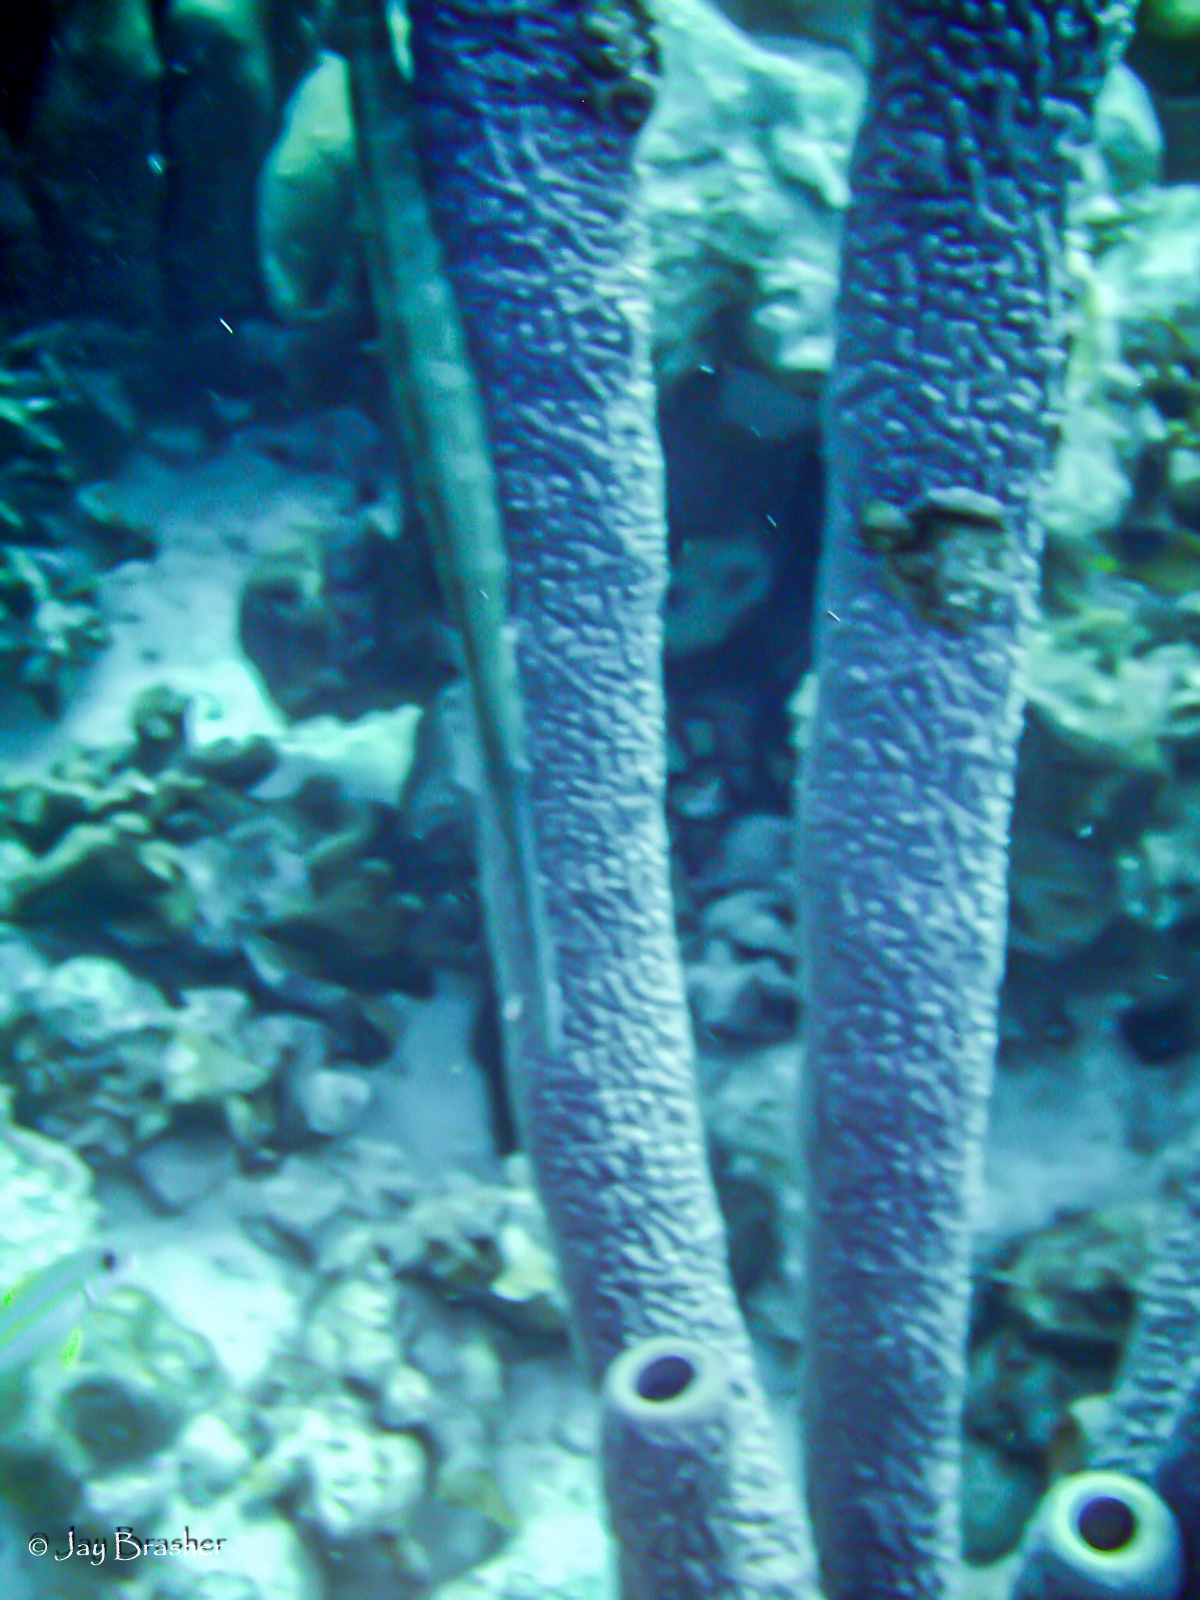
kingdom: Animalia
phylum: Chordata
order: Syngnathiformes
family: Aulostomidae
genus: Aulostomus
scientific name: Aulostomus maculatus
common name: West atlantic trumpetfish
